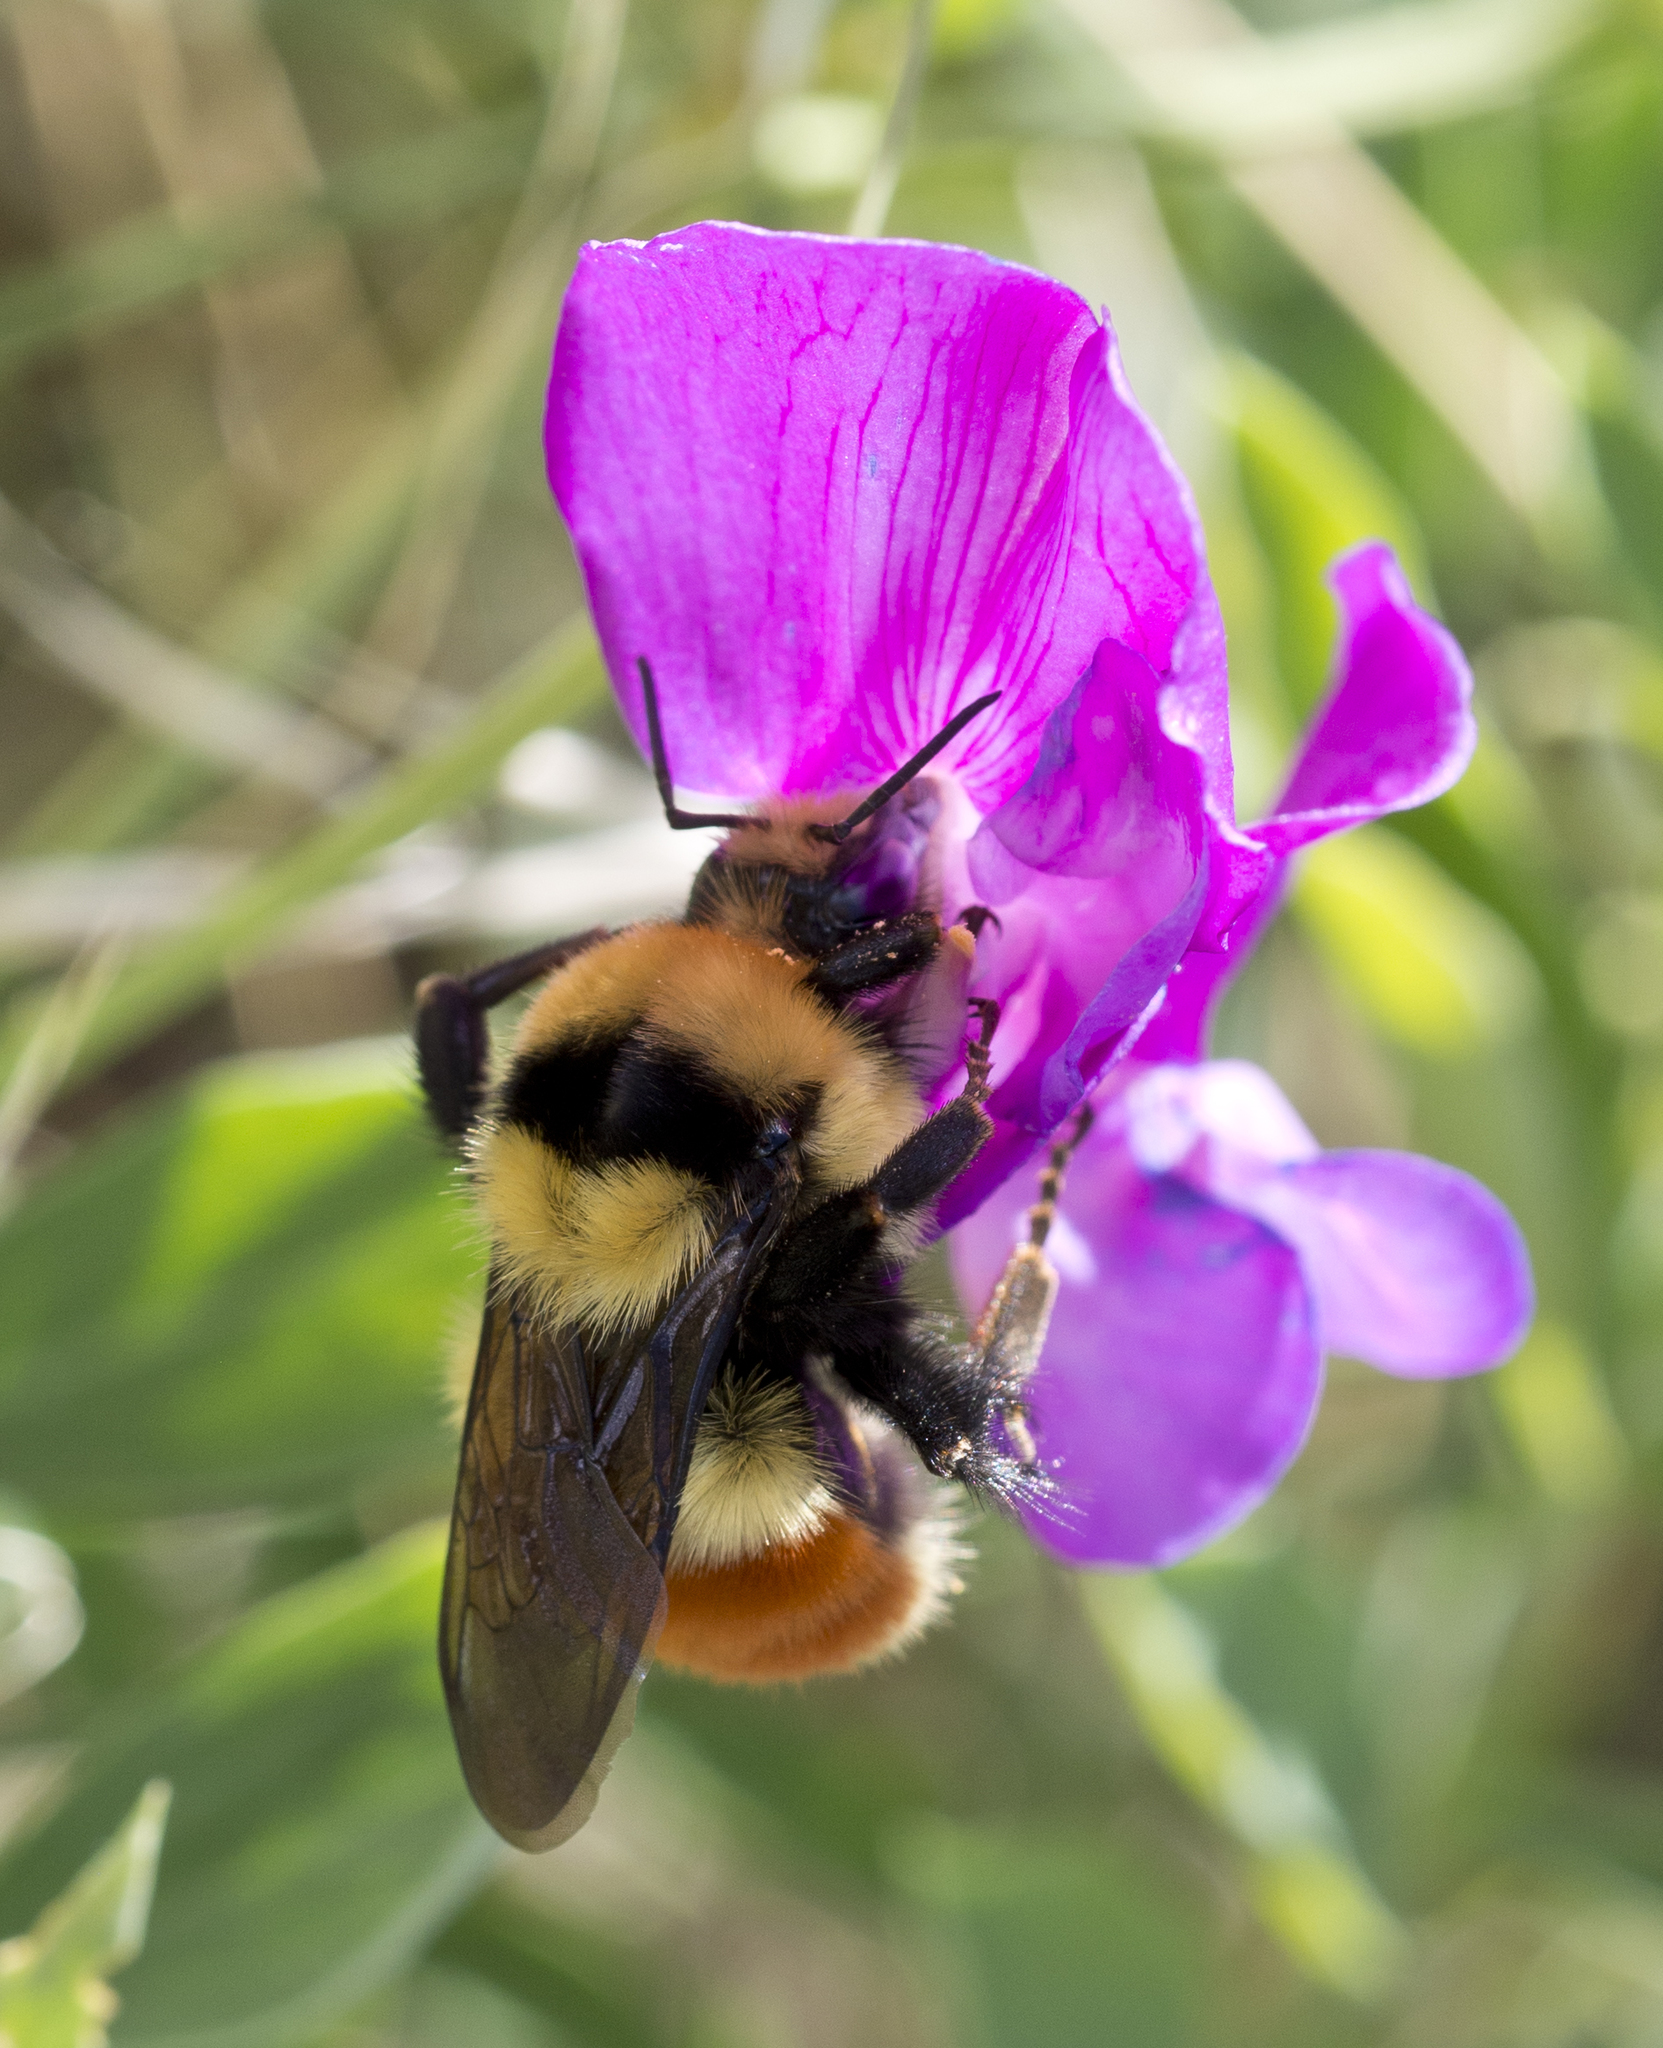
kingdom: Animalia
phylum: Arthropoda
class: Insecta
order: Hymenoptera
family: Apidae
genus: Bombus
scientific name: Bombus huntii
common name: Hunt bumble bee
